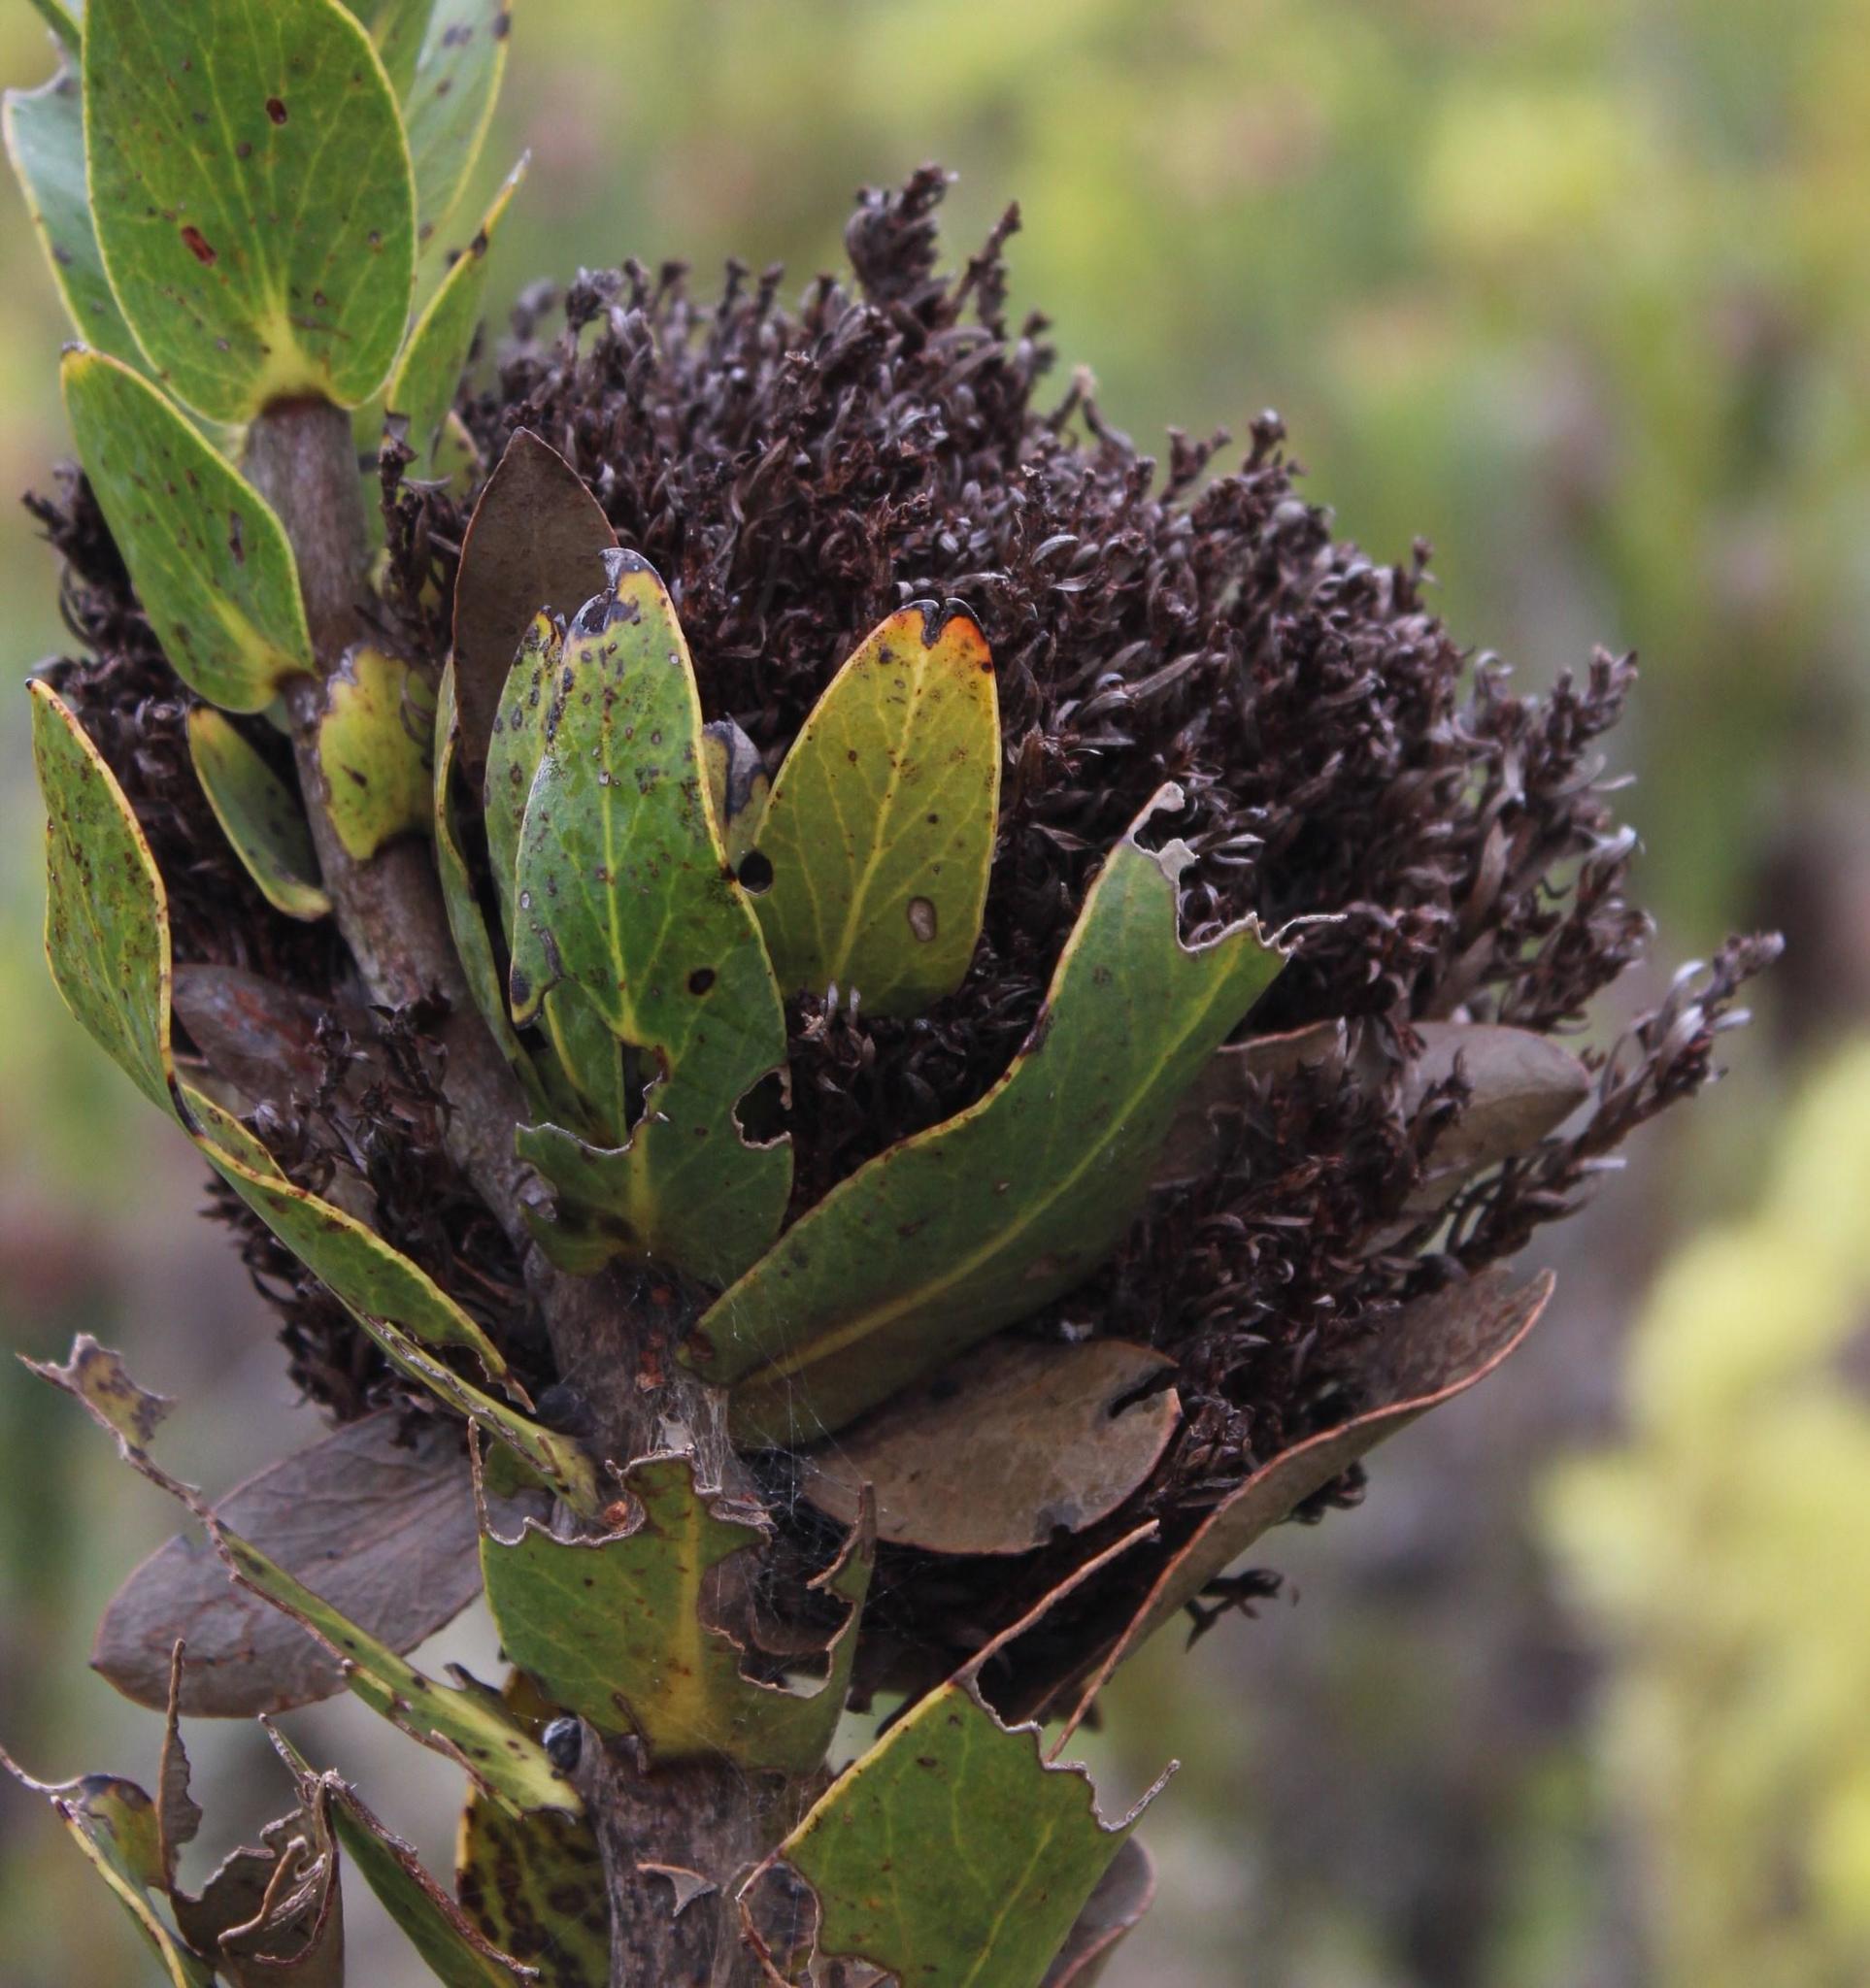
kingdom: Bacteria
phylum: Firmicutes
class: Bacilli
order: Acholeplasmatales
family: Acholeplasmataceae
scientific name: Acholeplasmataceae
